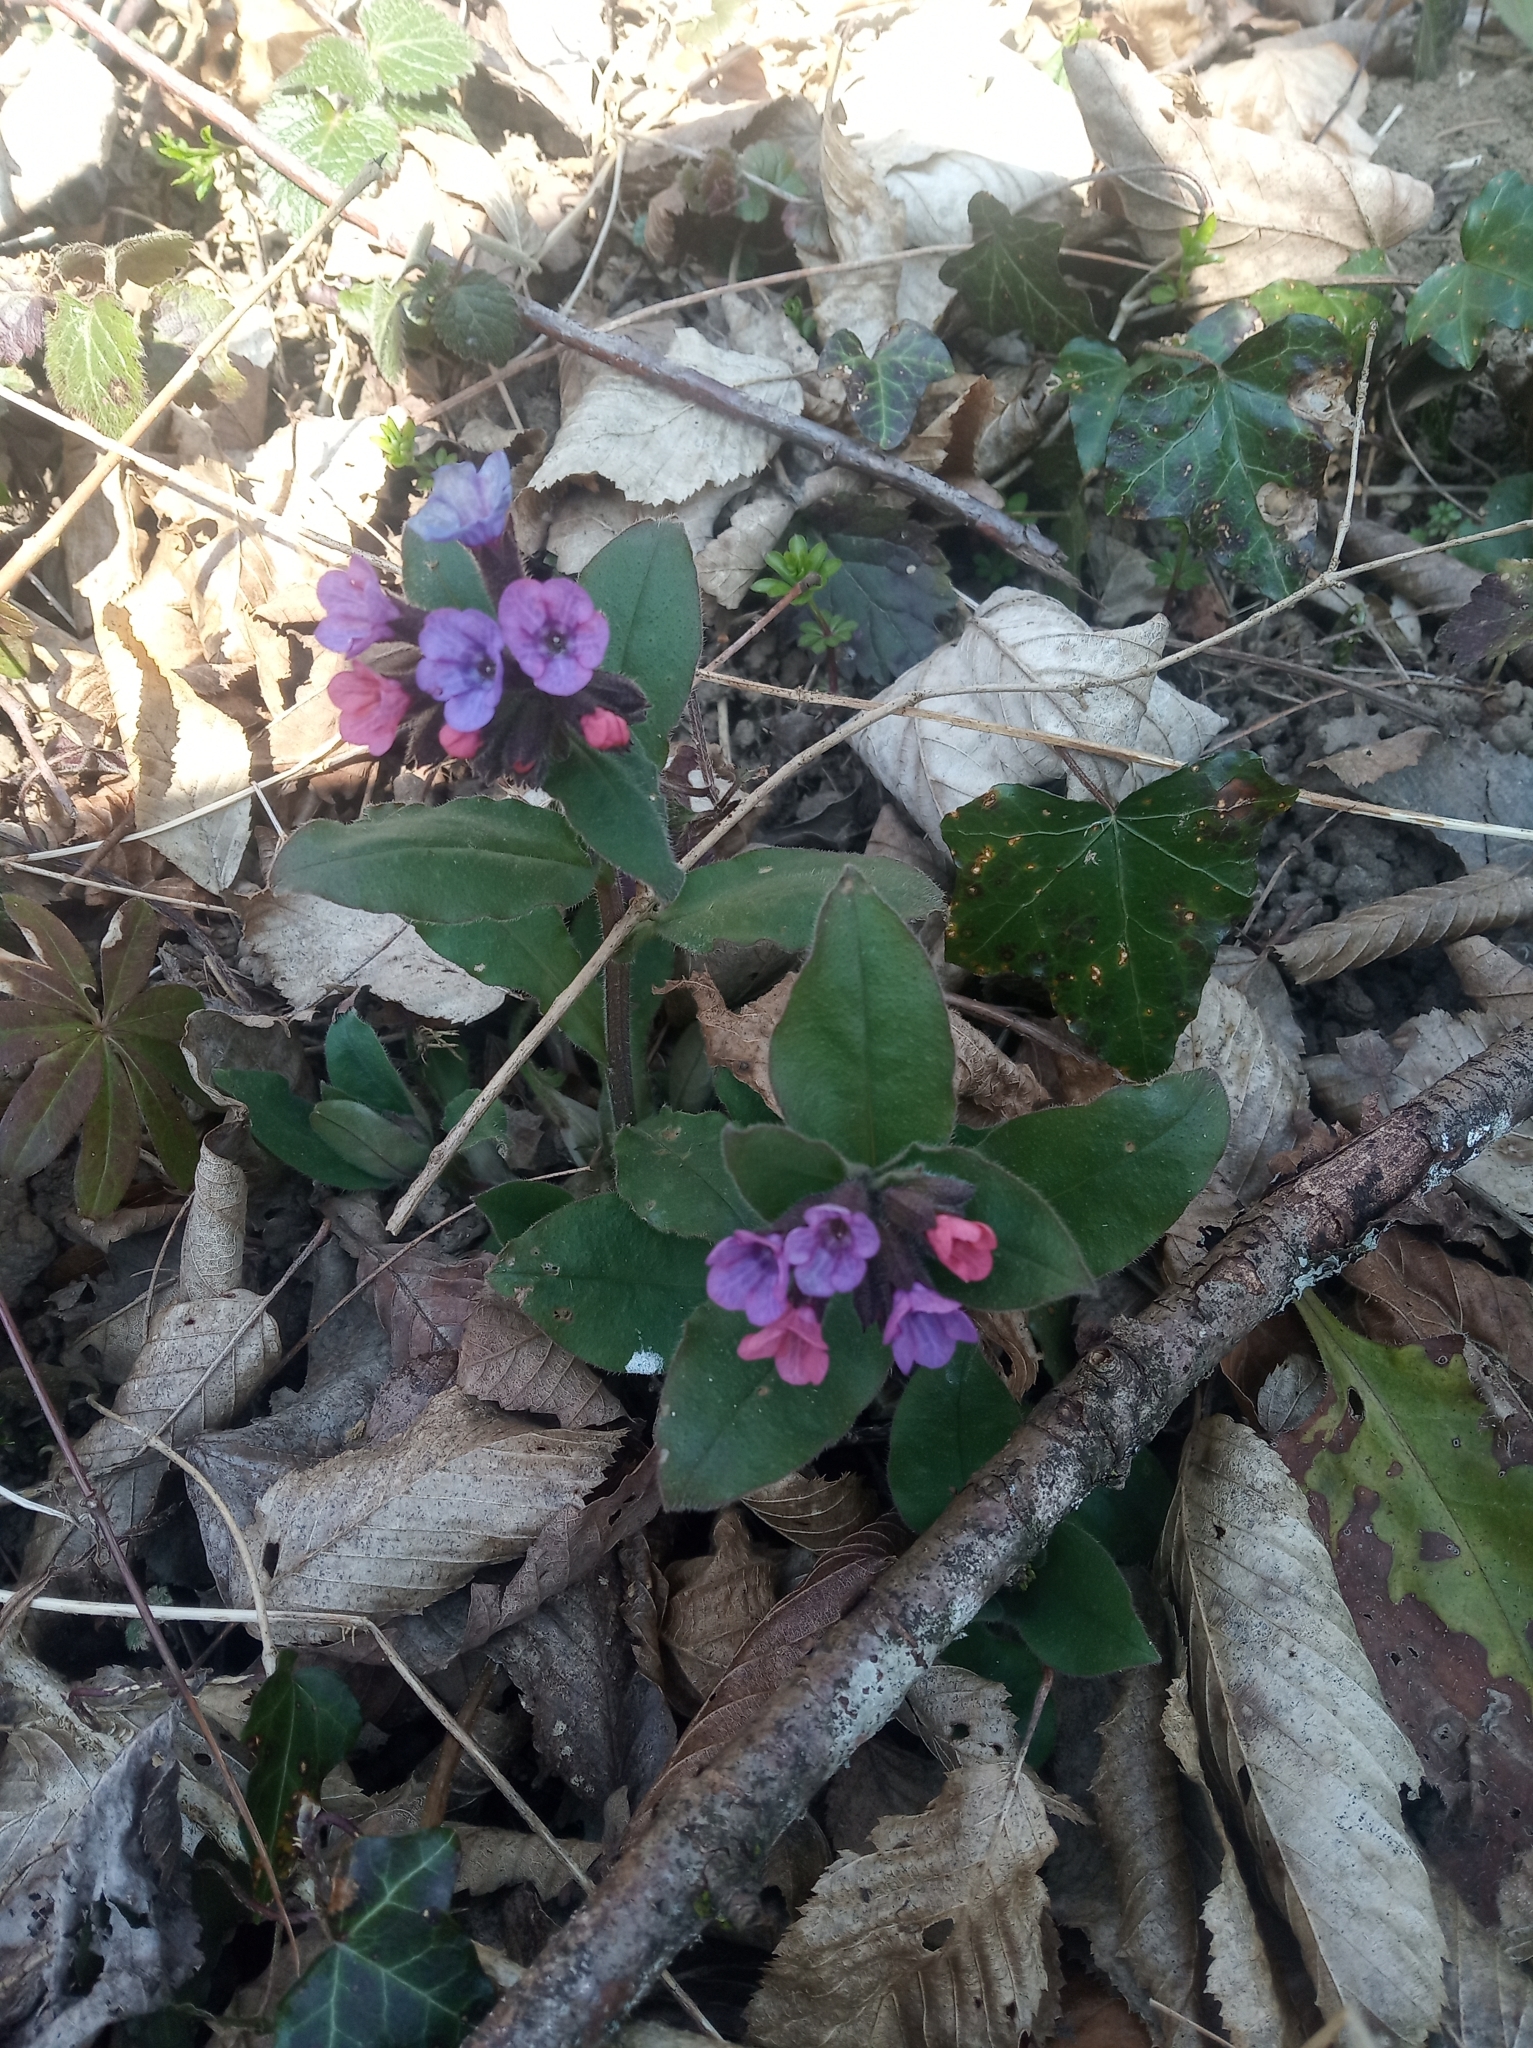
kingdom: Plantae
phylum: Tracheophyta
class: Magnoliopsida
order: Boraginales
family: Boraginaceae
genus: Pulmonaria
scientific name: Pulmonaria obscura
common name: Suffolk lungwort
